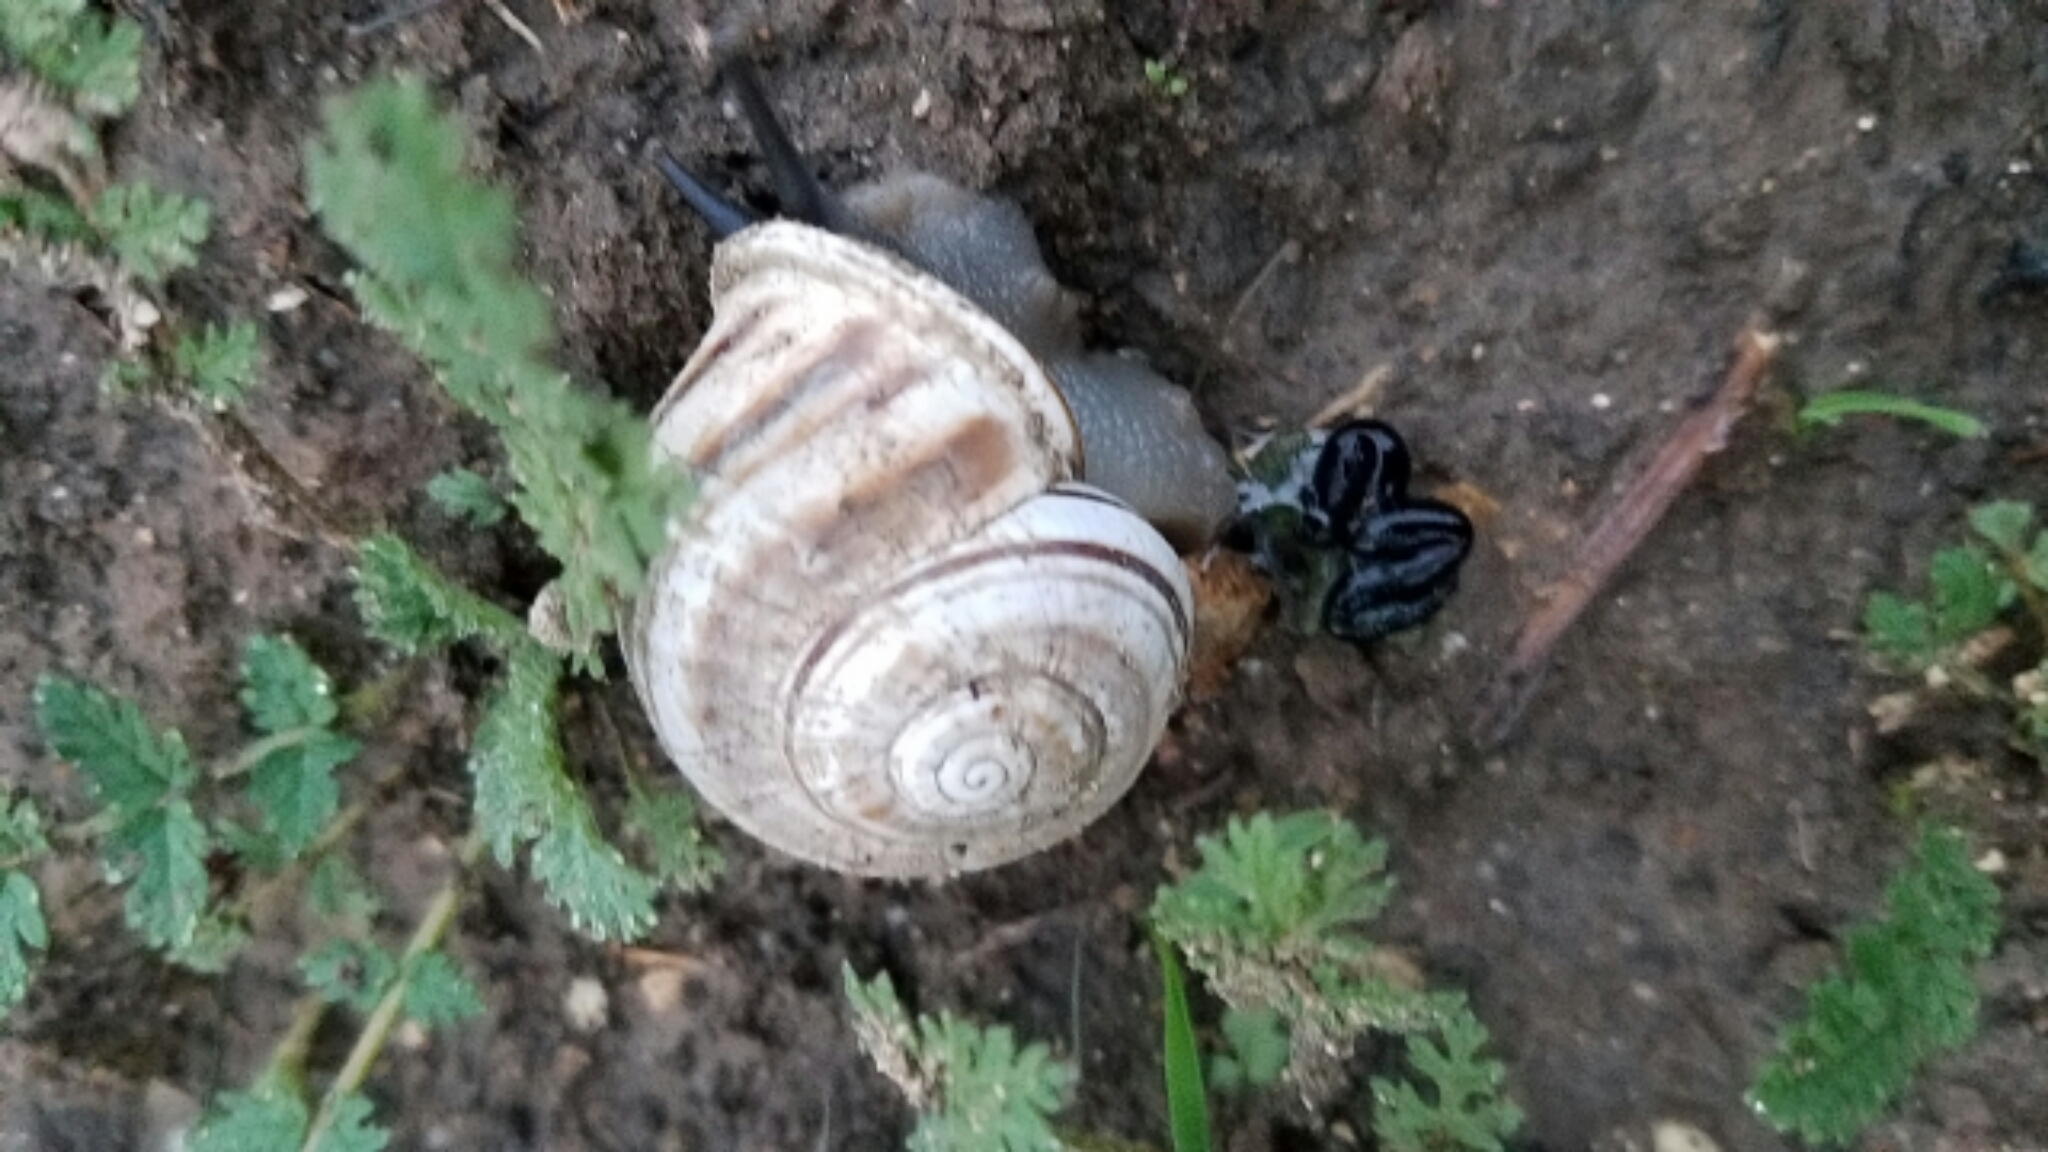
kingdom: Animalia
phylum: Mollusca
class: Gastropoda
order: Stylommatophora
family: Helicidae
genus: Otala
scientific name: Otala lactea
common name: Milk snail
